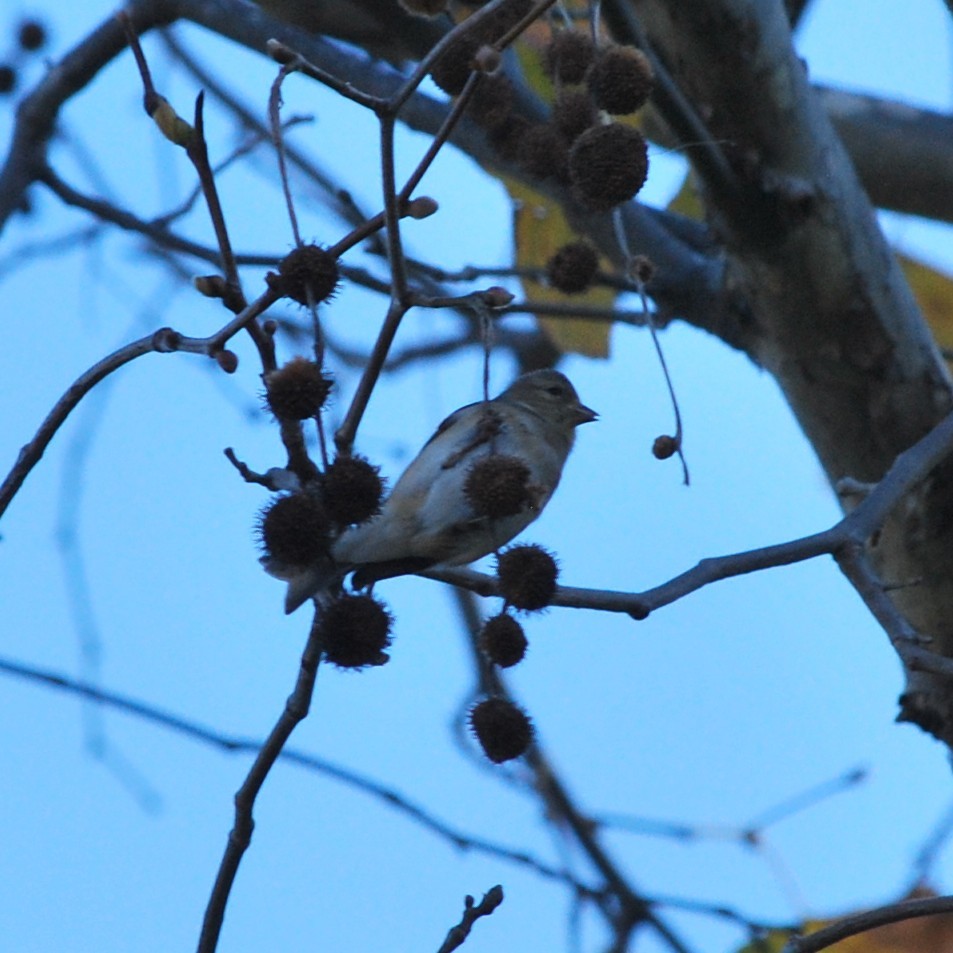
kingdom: Animalia
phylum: Chordata
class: Aves
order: Passeriformes
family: Fringillidae
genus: Spinus
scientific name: Spinus tristis
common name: American goldfinch
